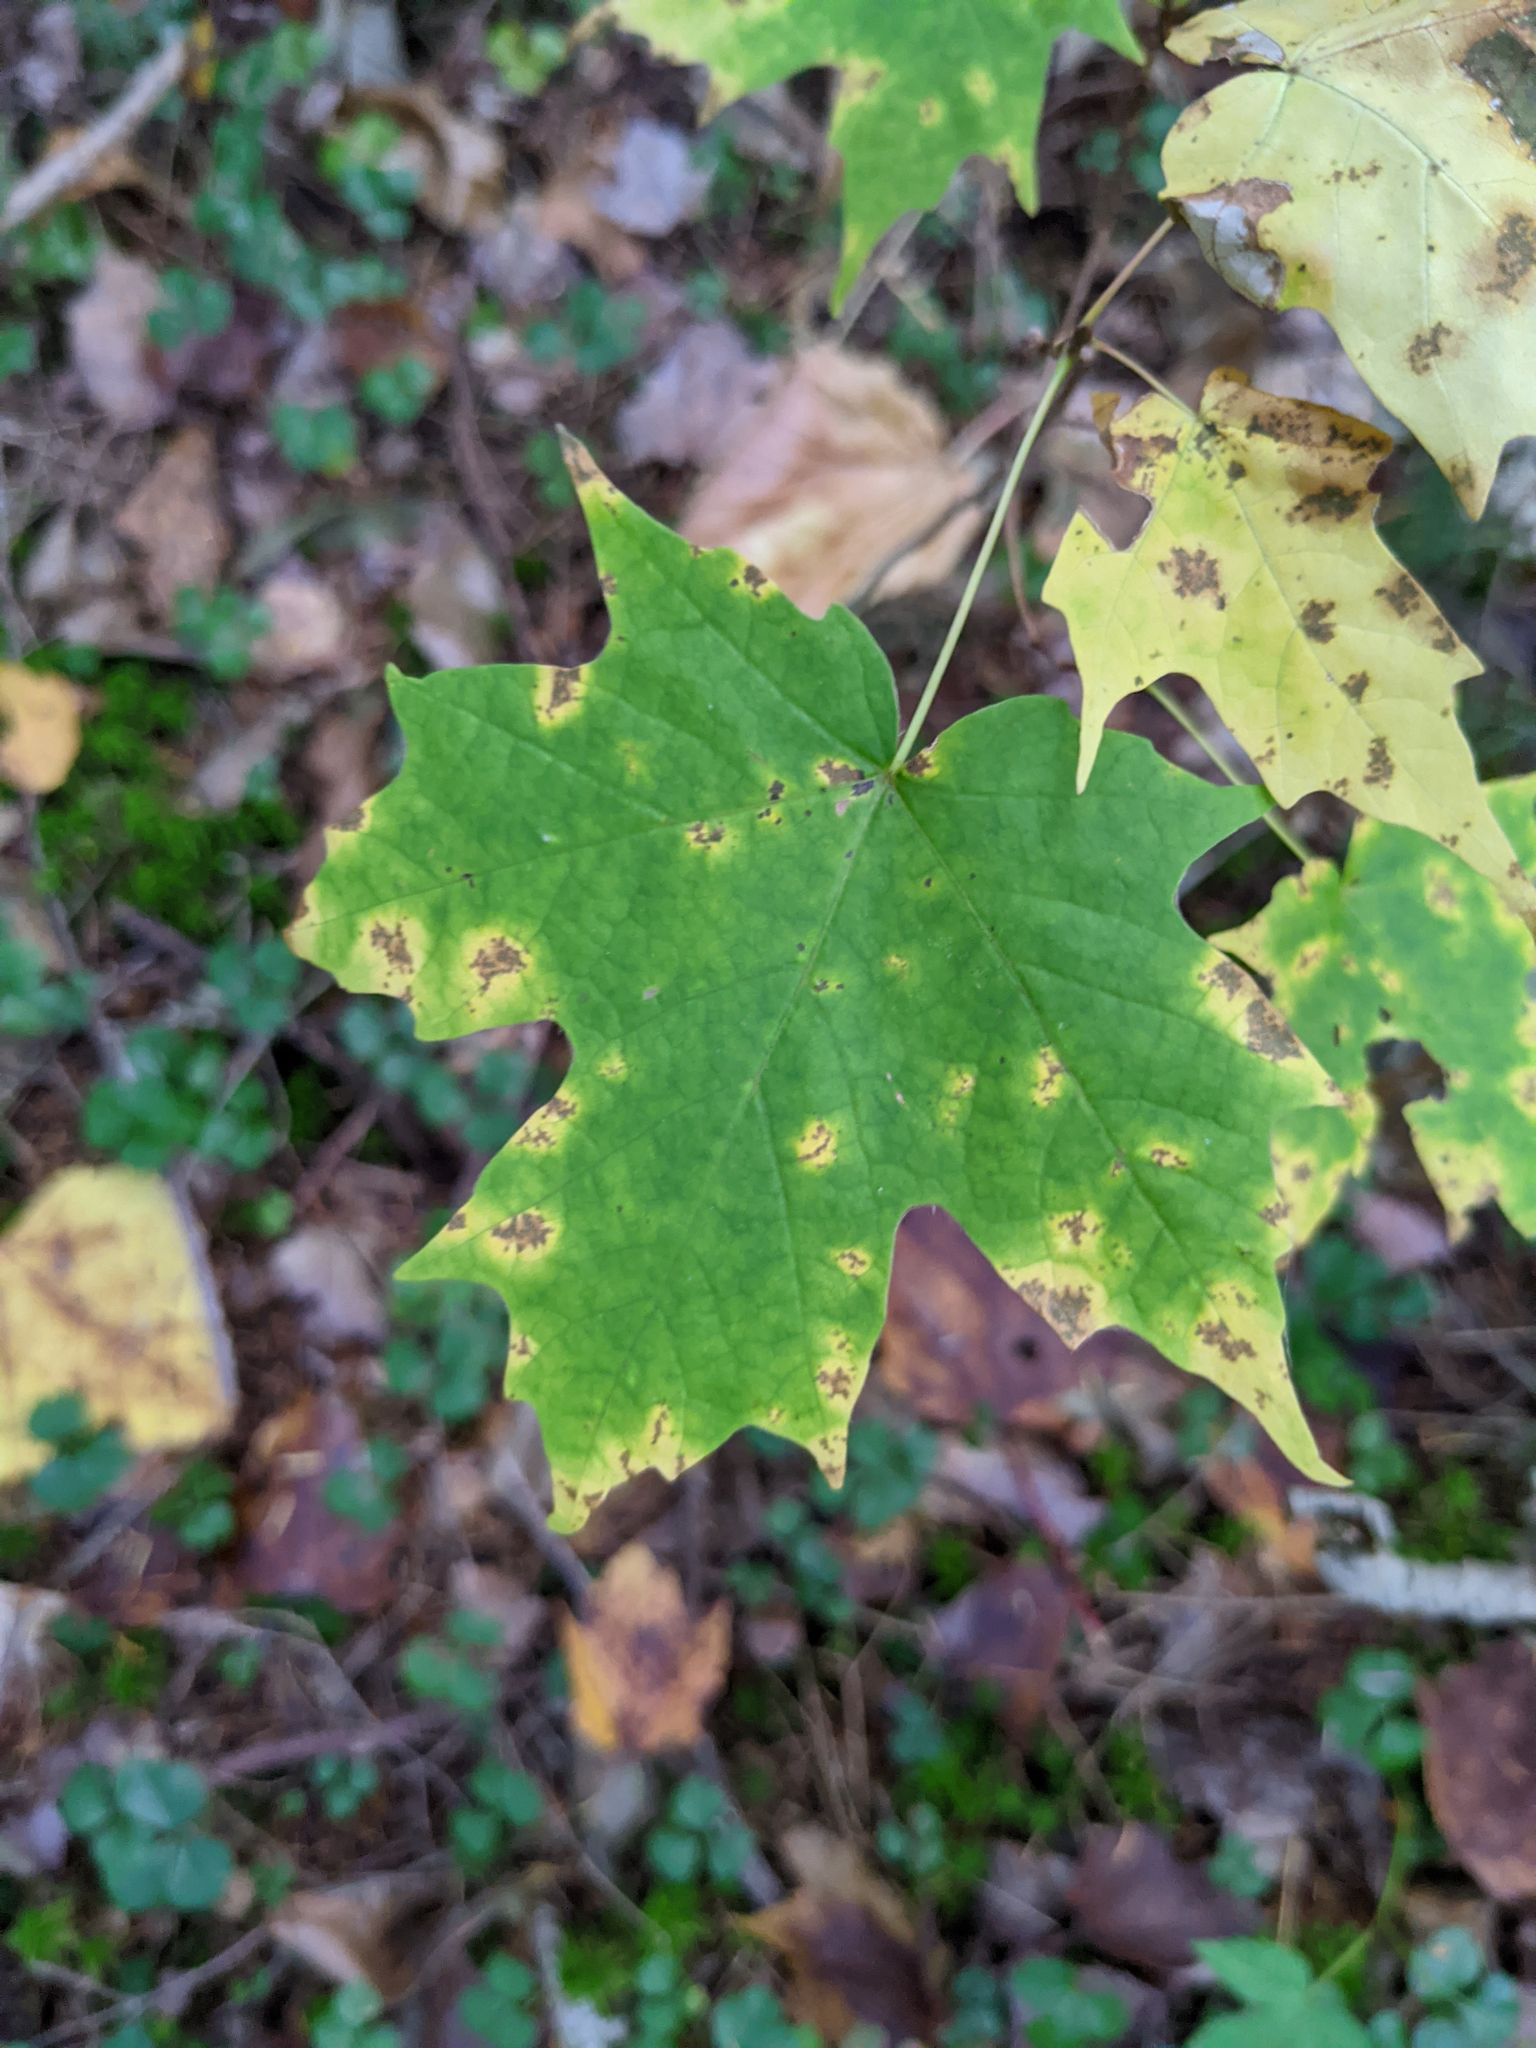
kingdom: Plantae
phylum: Tracheophyta
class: Magnoliopsida
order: Sapindales
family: Sapindaceae
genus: Acer
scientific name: Acer saccharum
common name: Sugar maple
